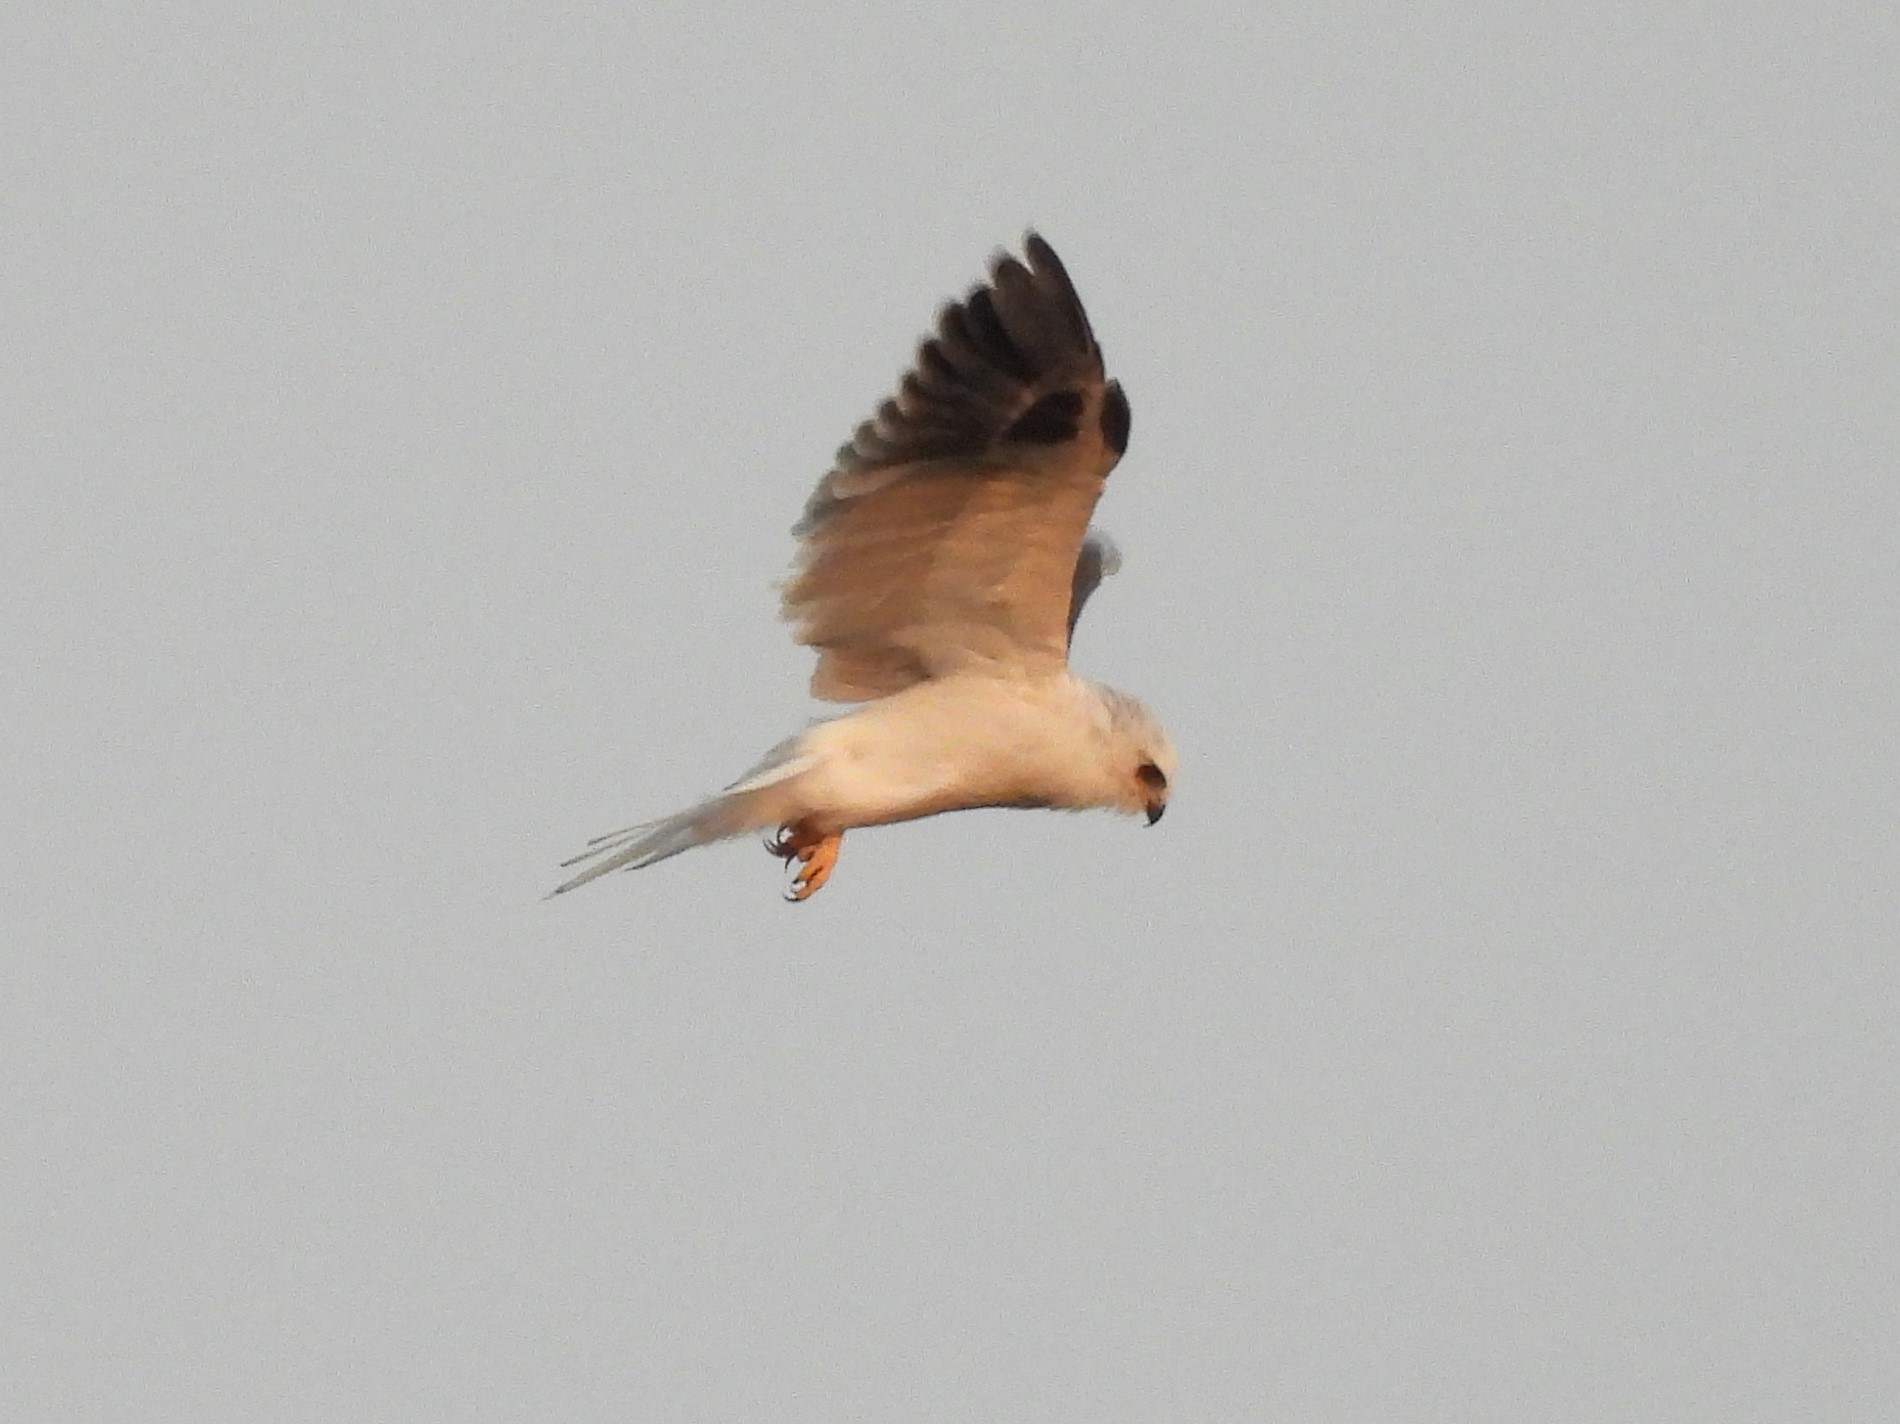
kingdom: Animalia
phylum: Chordata
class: Aves
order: Accipitriformes
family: Accipitridae
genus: Elanus
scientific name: Elanus leucurus
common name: White-tailed kite
